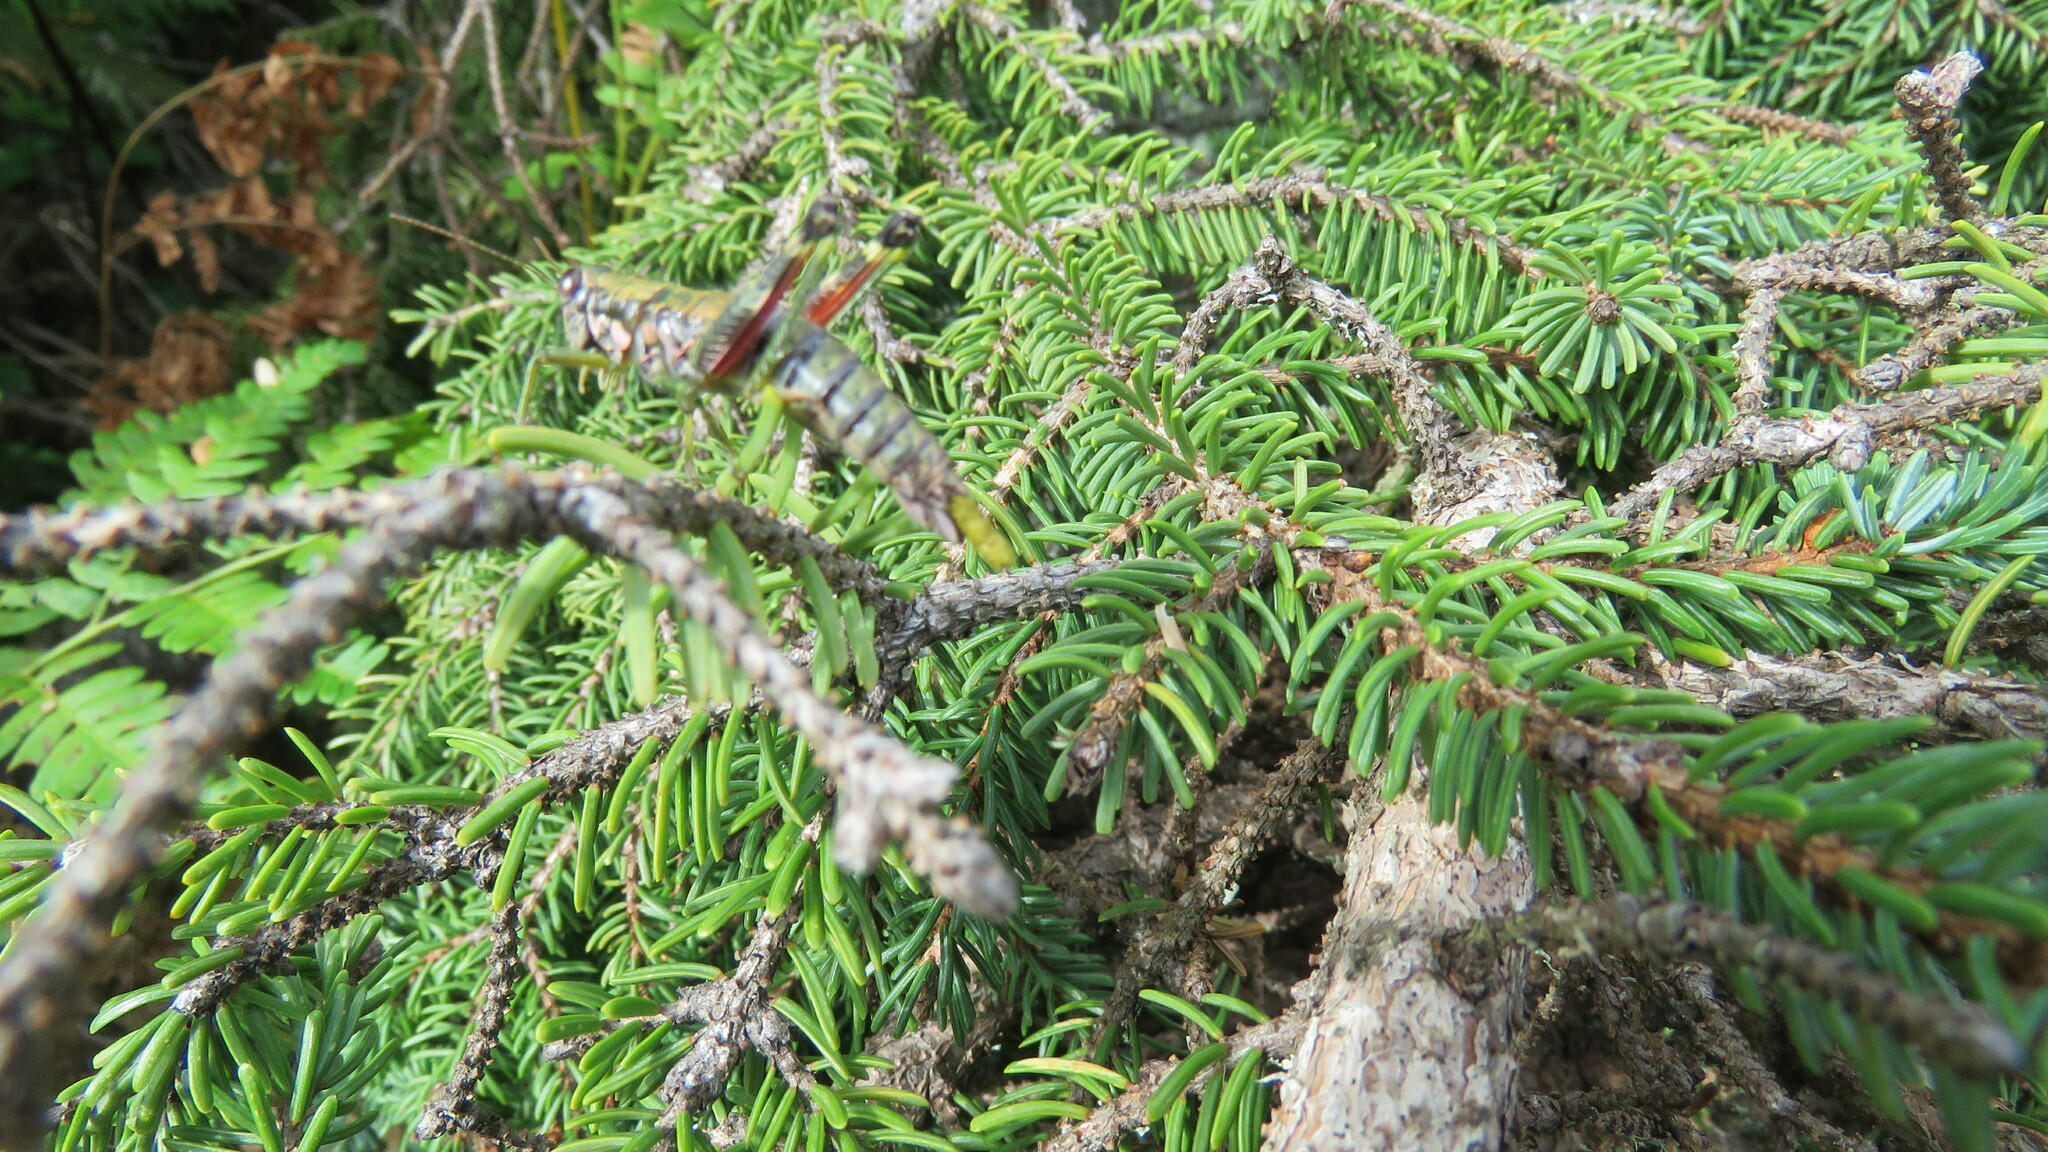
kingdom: Animalia
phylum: Arthropoda
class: Insecta
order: Orthoptera
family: Acrididae
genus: Booneacris
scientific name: Booneacris glacialis
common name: Wingless mountain grasshopper
